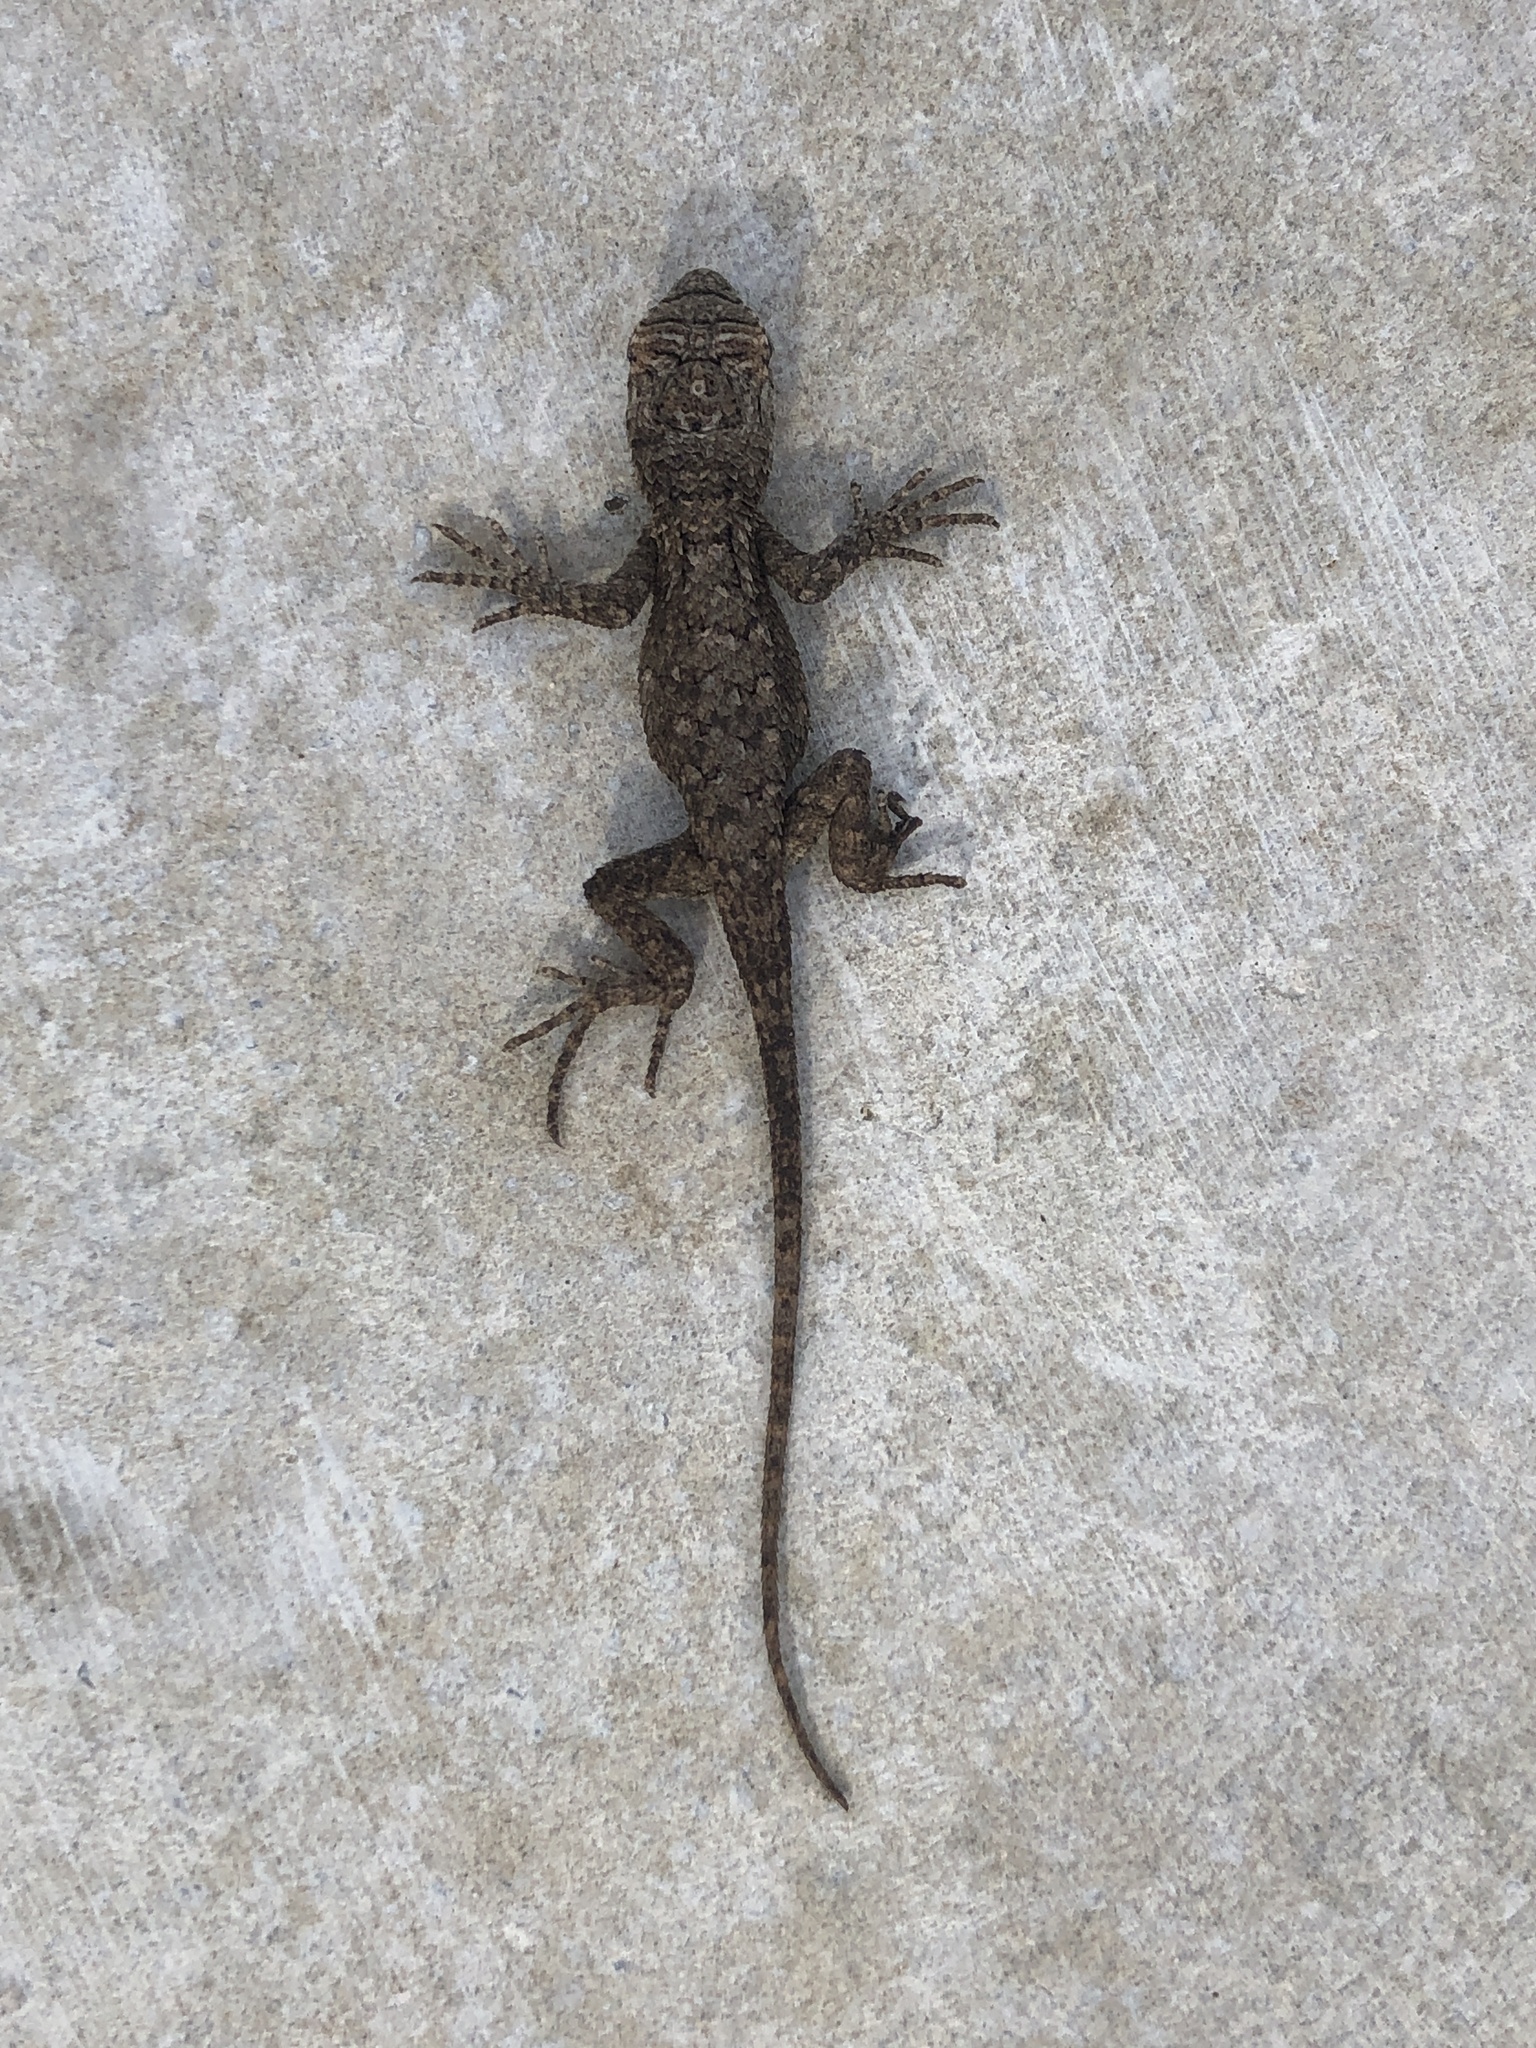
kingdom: Animalia
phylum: Chordata
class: Squamata
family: Phrynosomatidae
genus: Sceloporus
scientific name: Sceloporus olivaceus
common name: Texas spiny lizard
